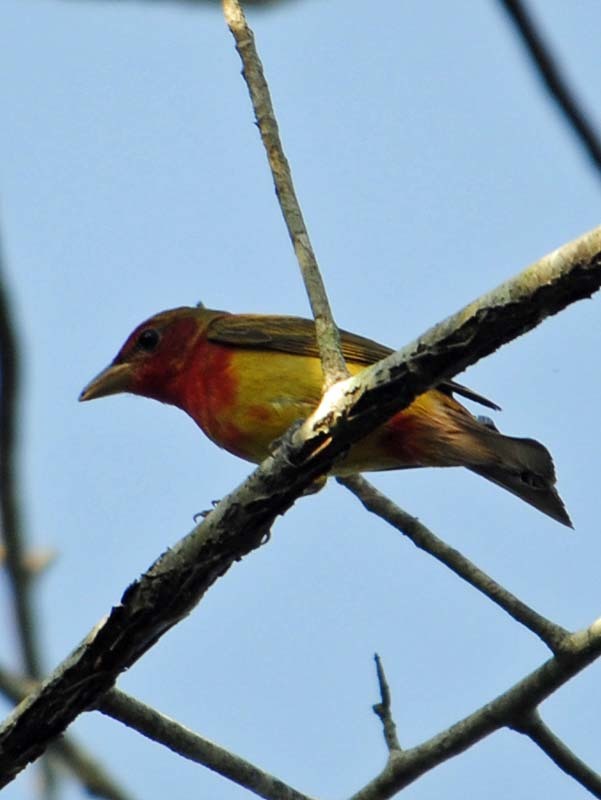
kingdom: Animalia
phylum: Chordata
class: Aves
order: Passeriformes
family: Cardinalidae
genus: Piranga
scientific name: Piranga rubra
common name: Summer tanager
